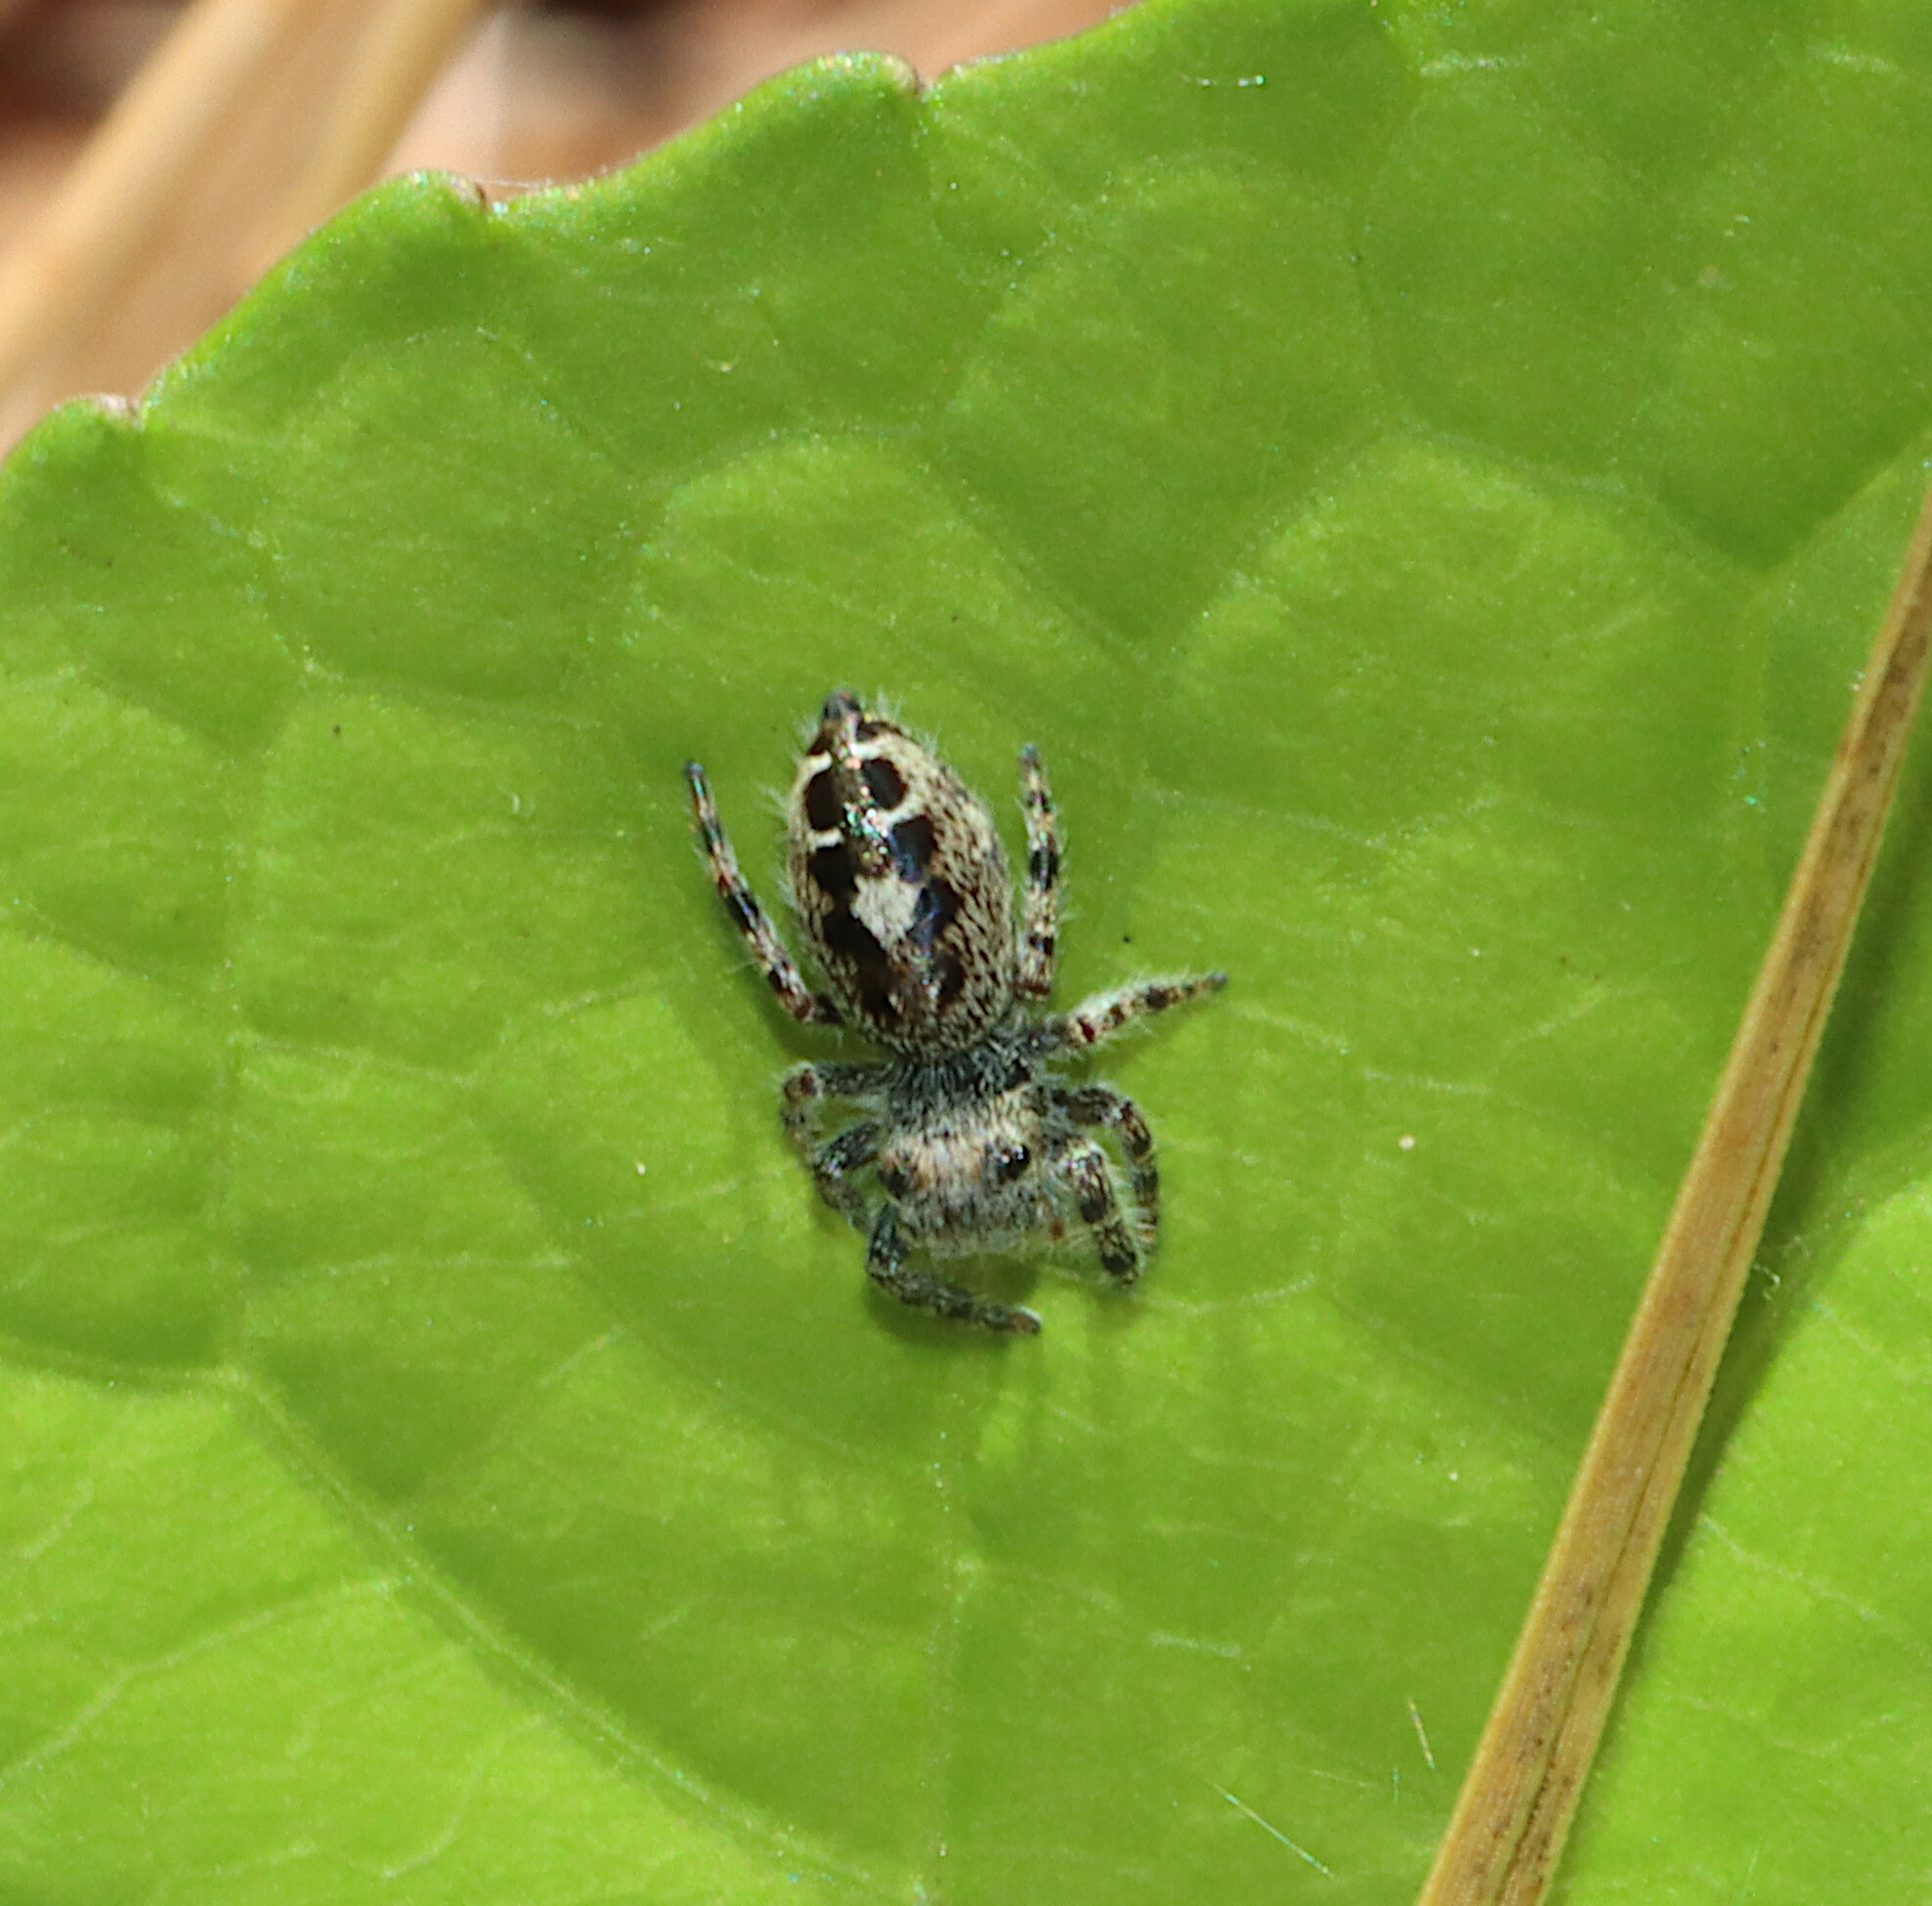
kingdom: Animalia
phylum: Arthropoda
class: Arachnida
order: Araneae
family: Salticidae
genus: Phidippus
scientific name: Phidippus putnami
